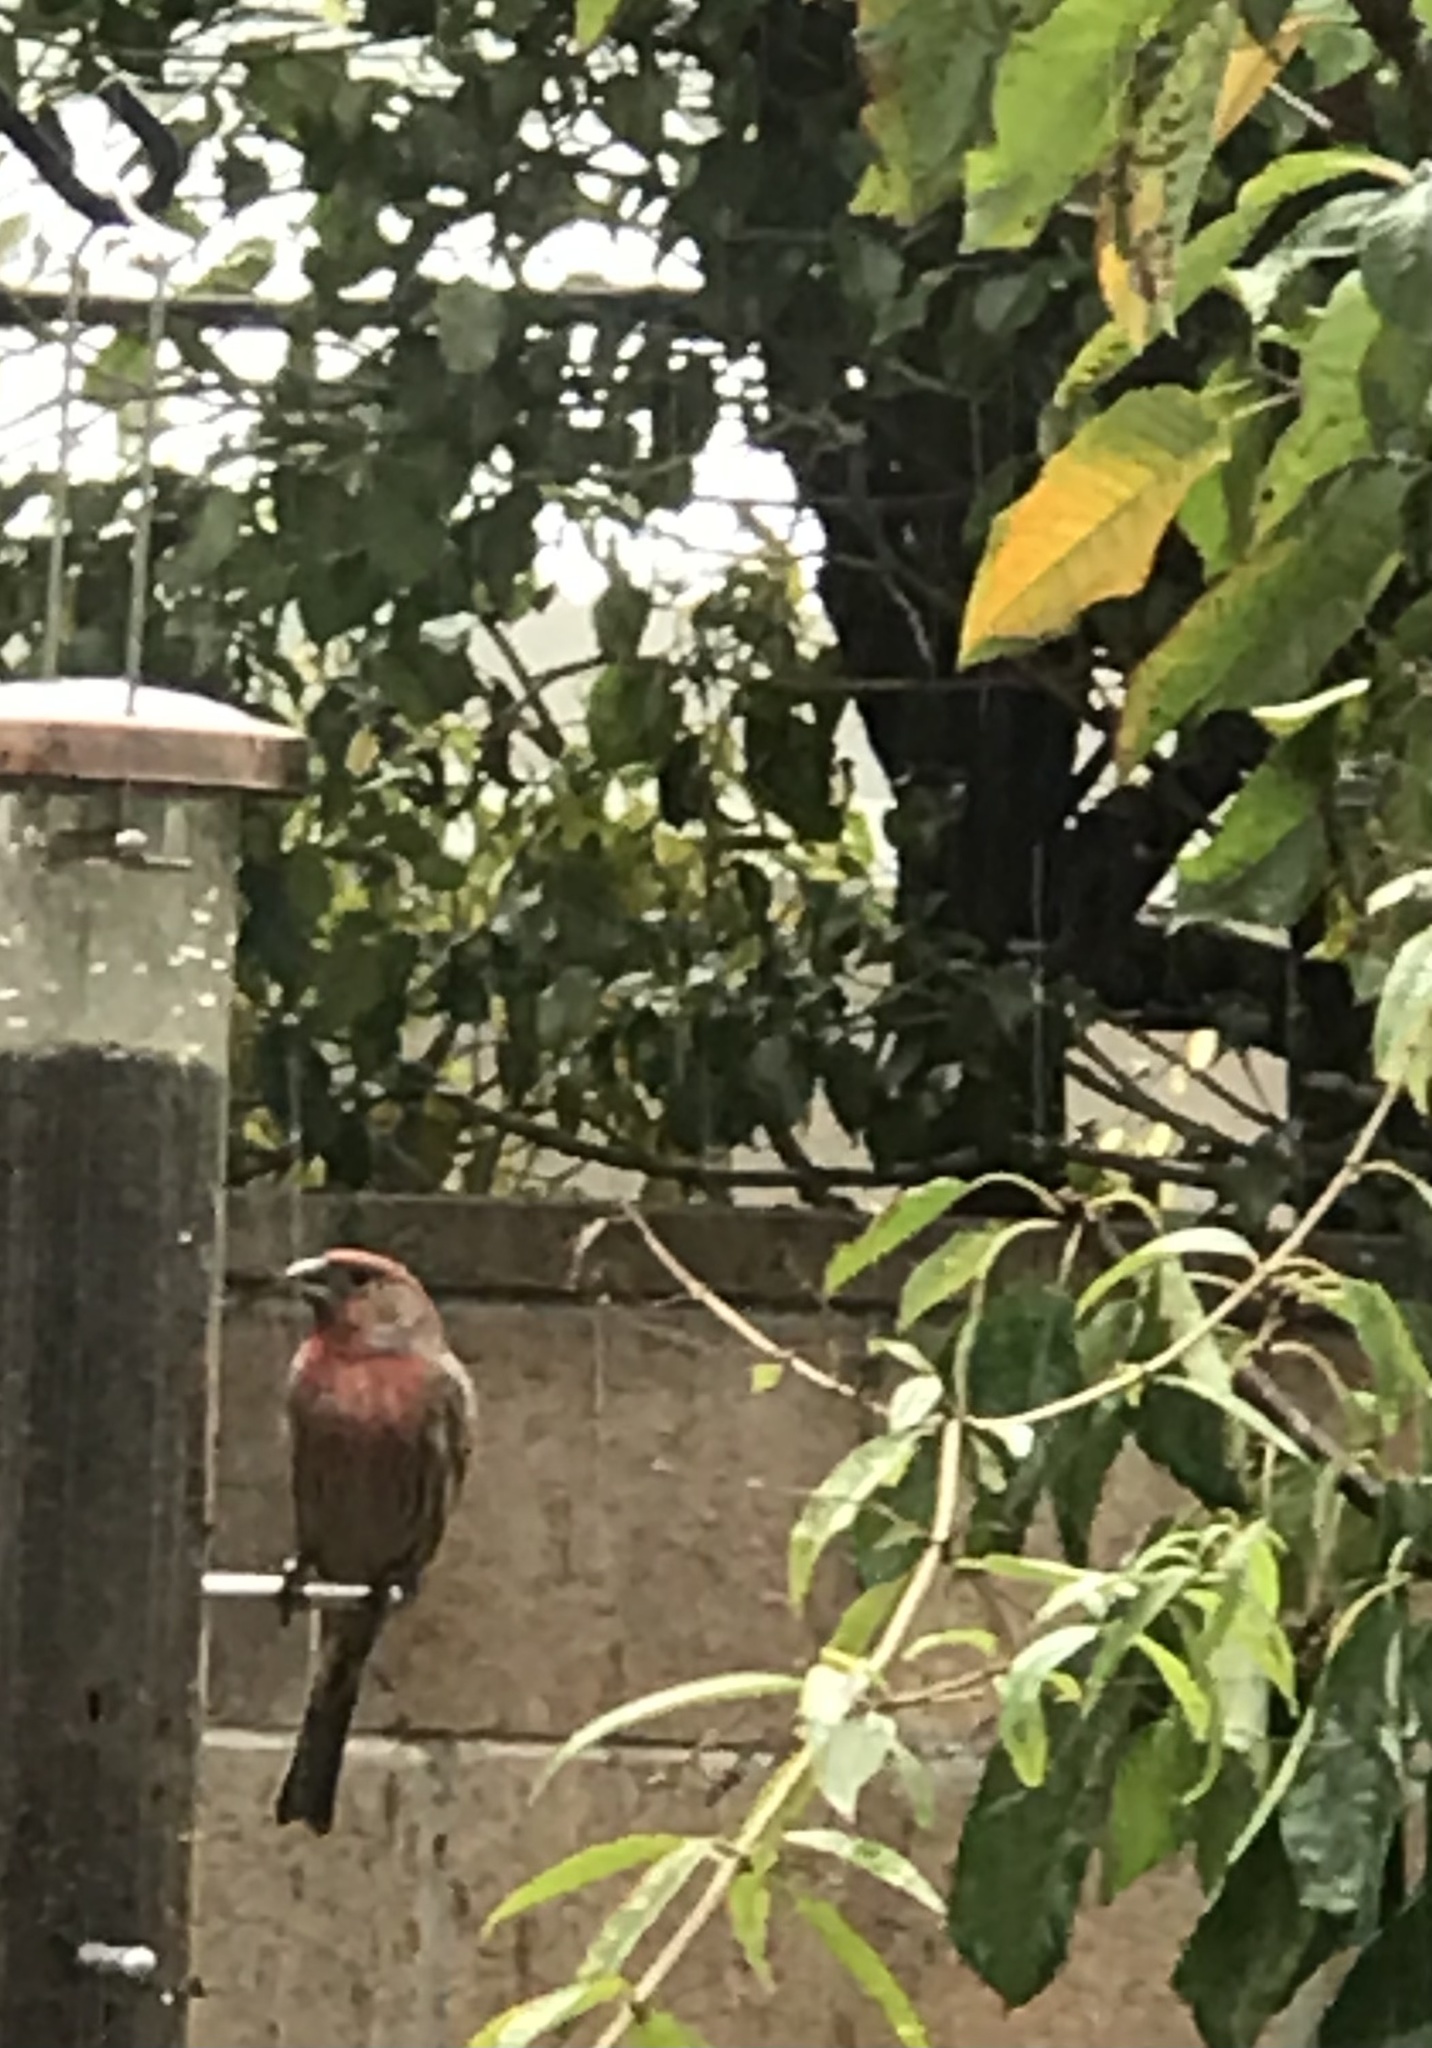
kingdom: Animalia
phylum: Chordata
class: Aves
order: Passeriformes
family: Fringillidae
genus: Haemorhous
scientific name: Haemorhous mexicanus
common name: House finch
